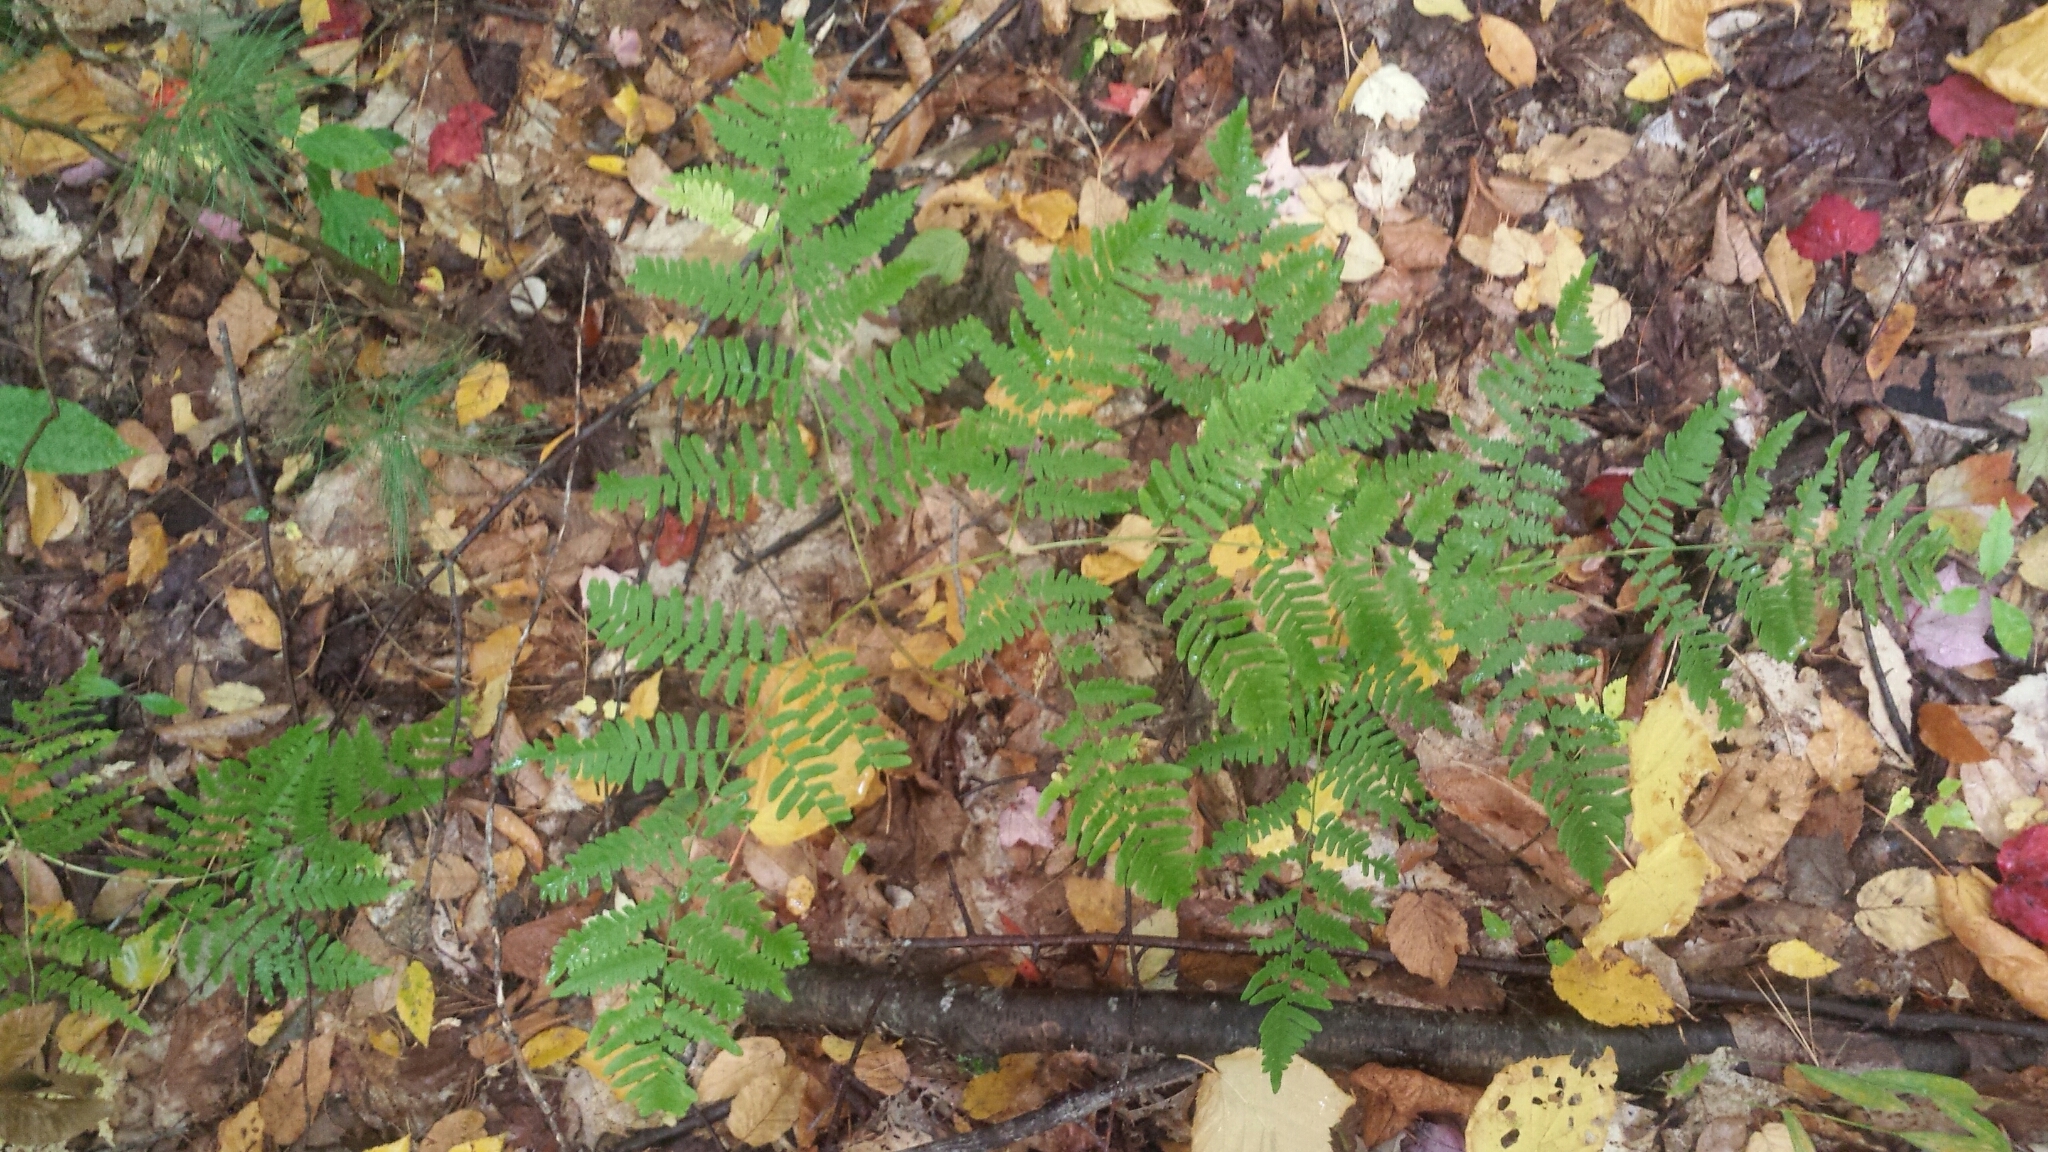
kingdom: Plantae
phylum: Tracheophyta
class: Polypodiopsida
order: Polypodiales
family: Dennstaedtiaceae
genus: Pteridium
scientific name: Pteridium aquilinum
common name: Bracken
